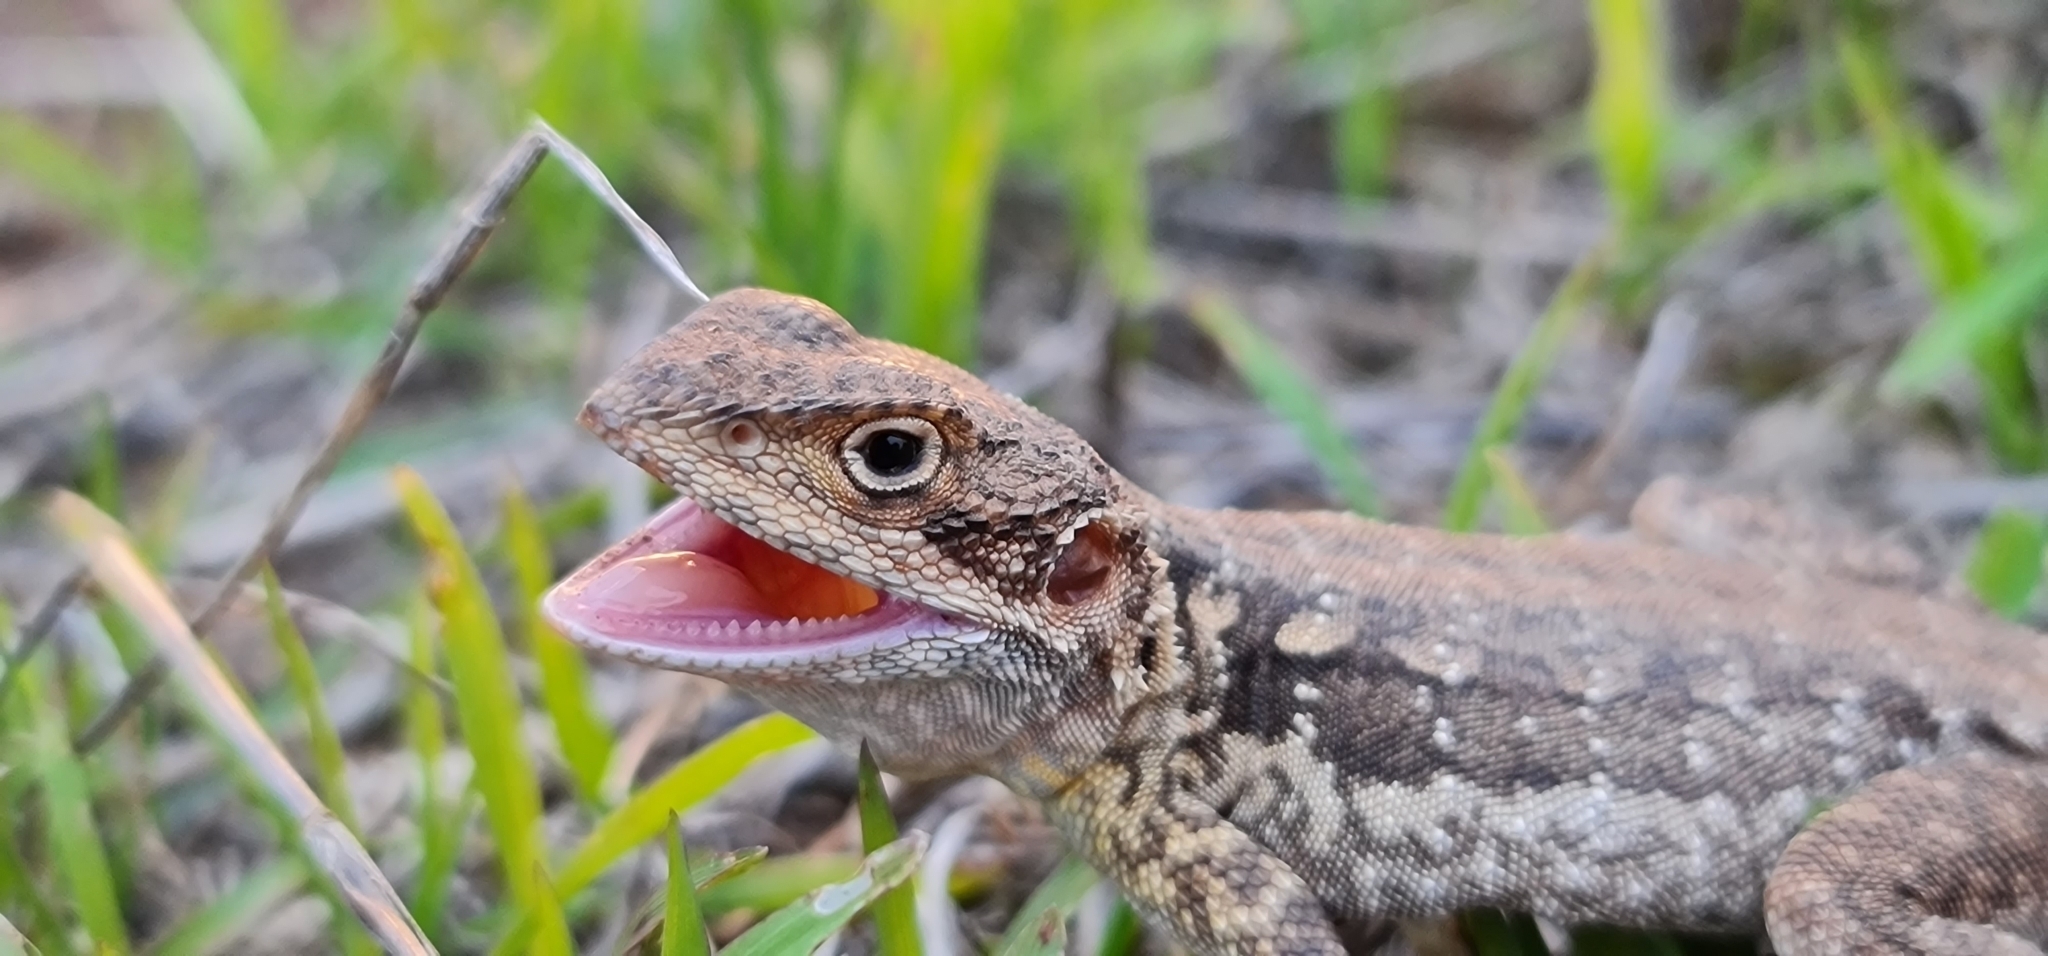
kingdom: Animalia
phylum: Chordata
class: Squamata
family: Agamidae
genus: Ctenophorus
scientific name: Ctenophorus decresii
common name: Tawny dragon
